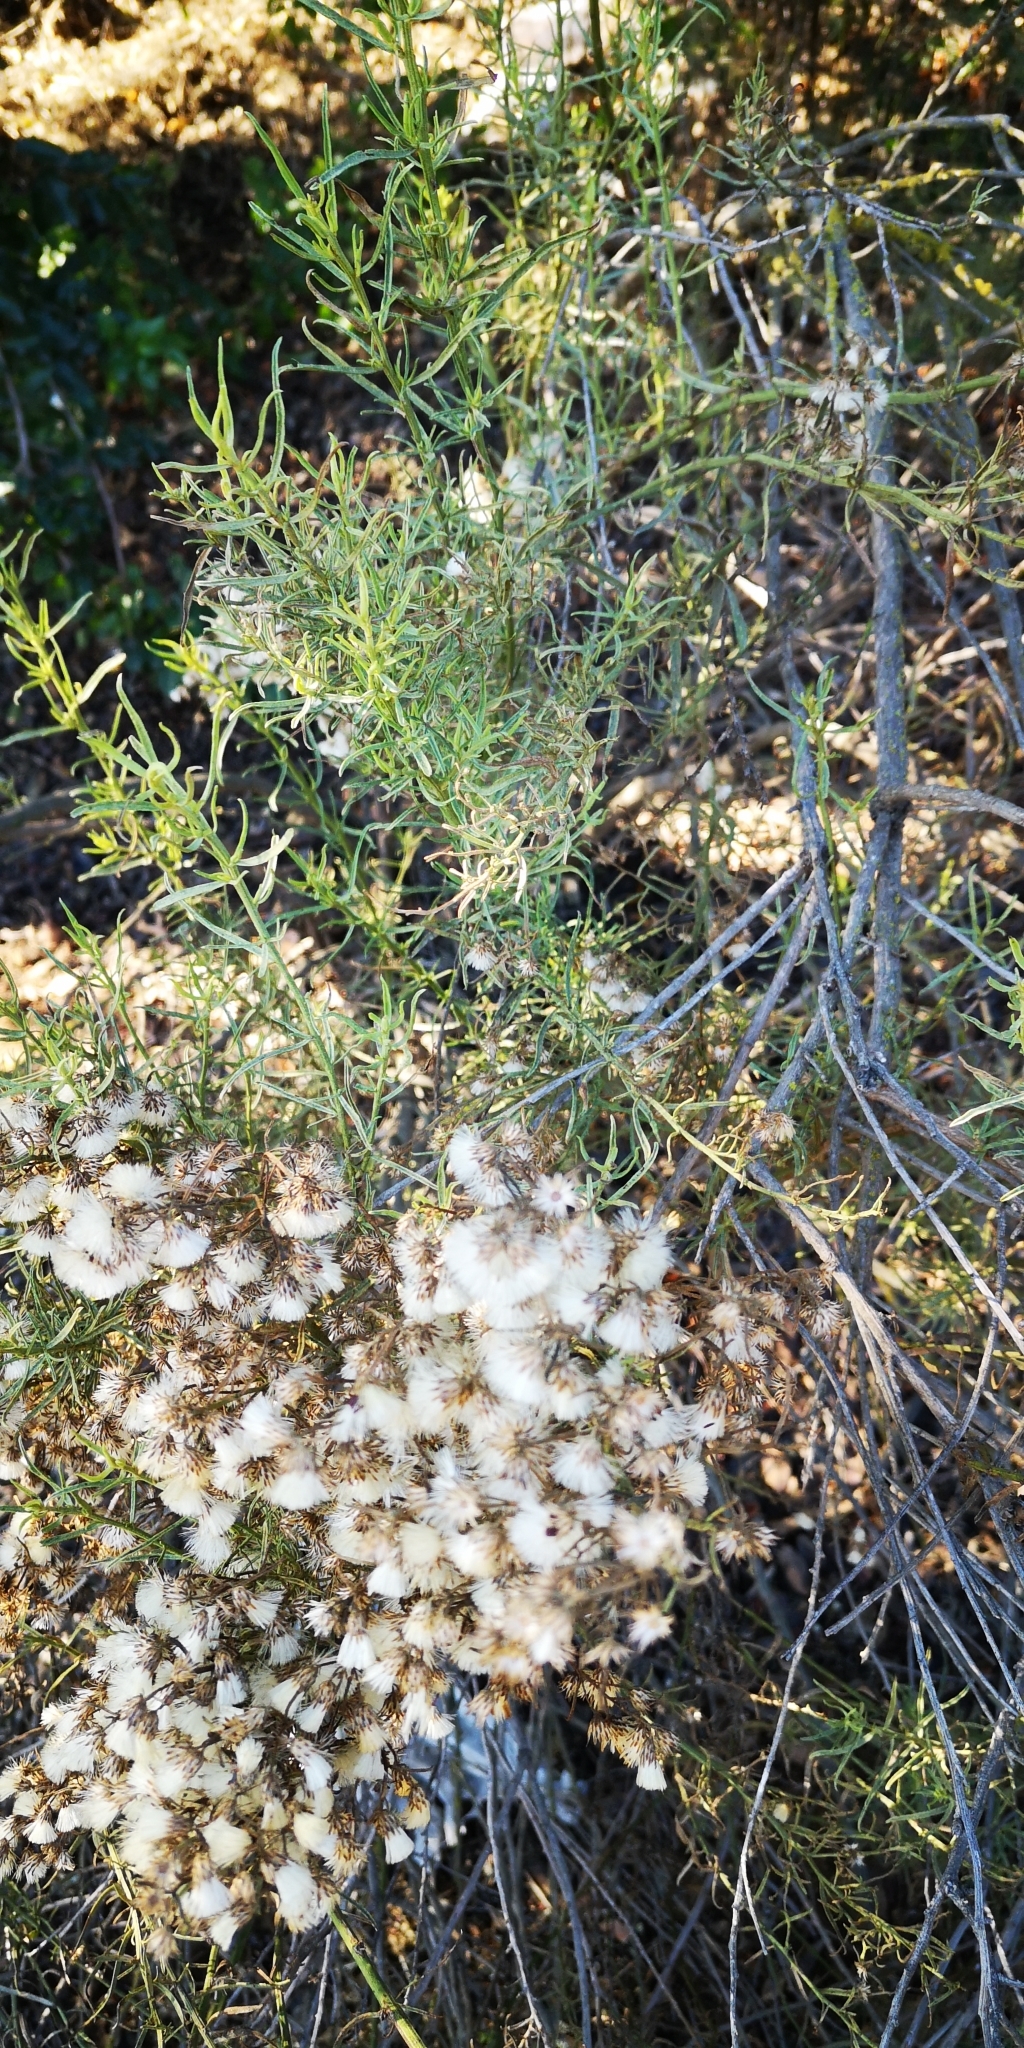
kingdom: Plantae
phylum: Tracheophyta
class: Magnoliopsida
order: Asterales
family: Asteraceae
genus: Baccharis
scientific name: Baccharis linearis
